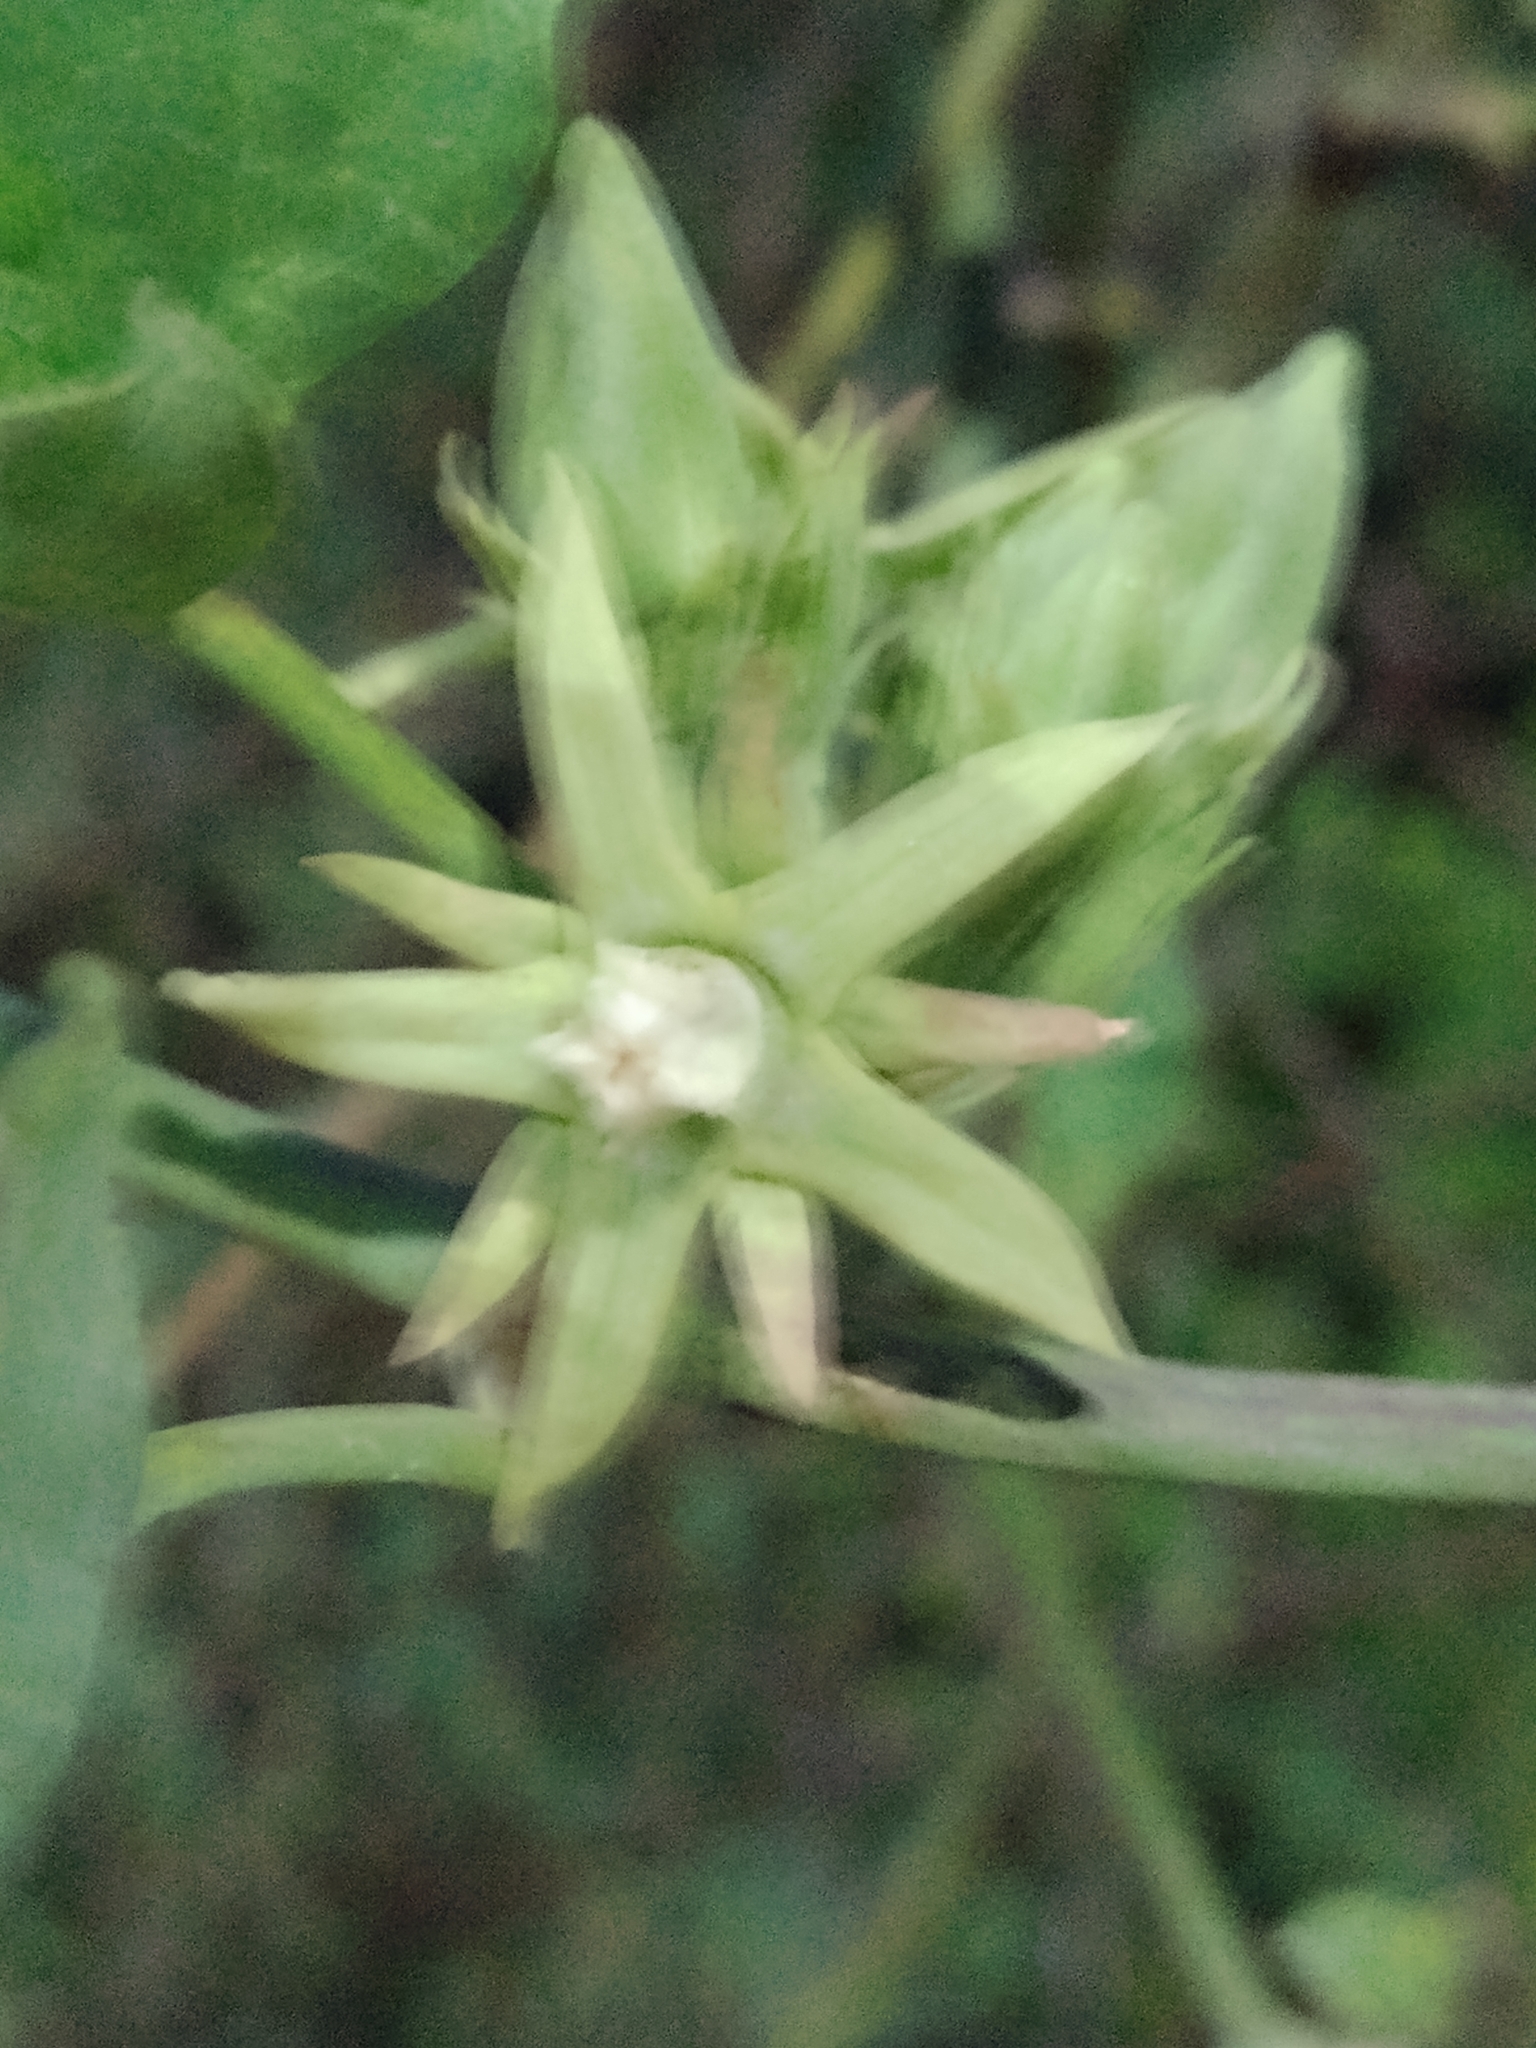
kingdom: Plantae
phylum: Tracheophyta
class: Magnoliopsida
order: Gentianales
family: Apocynaceae
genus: Araujia
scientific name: Araujia odorata
